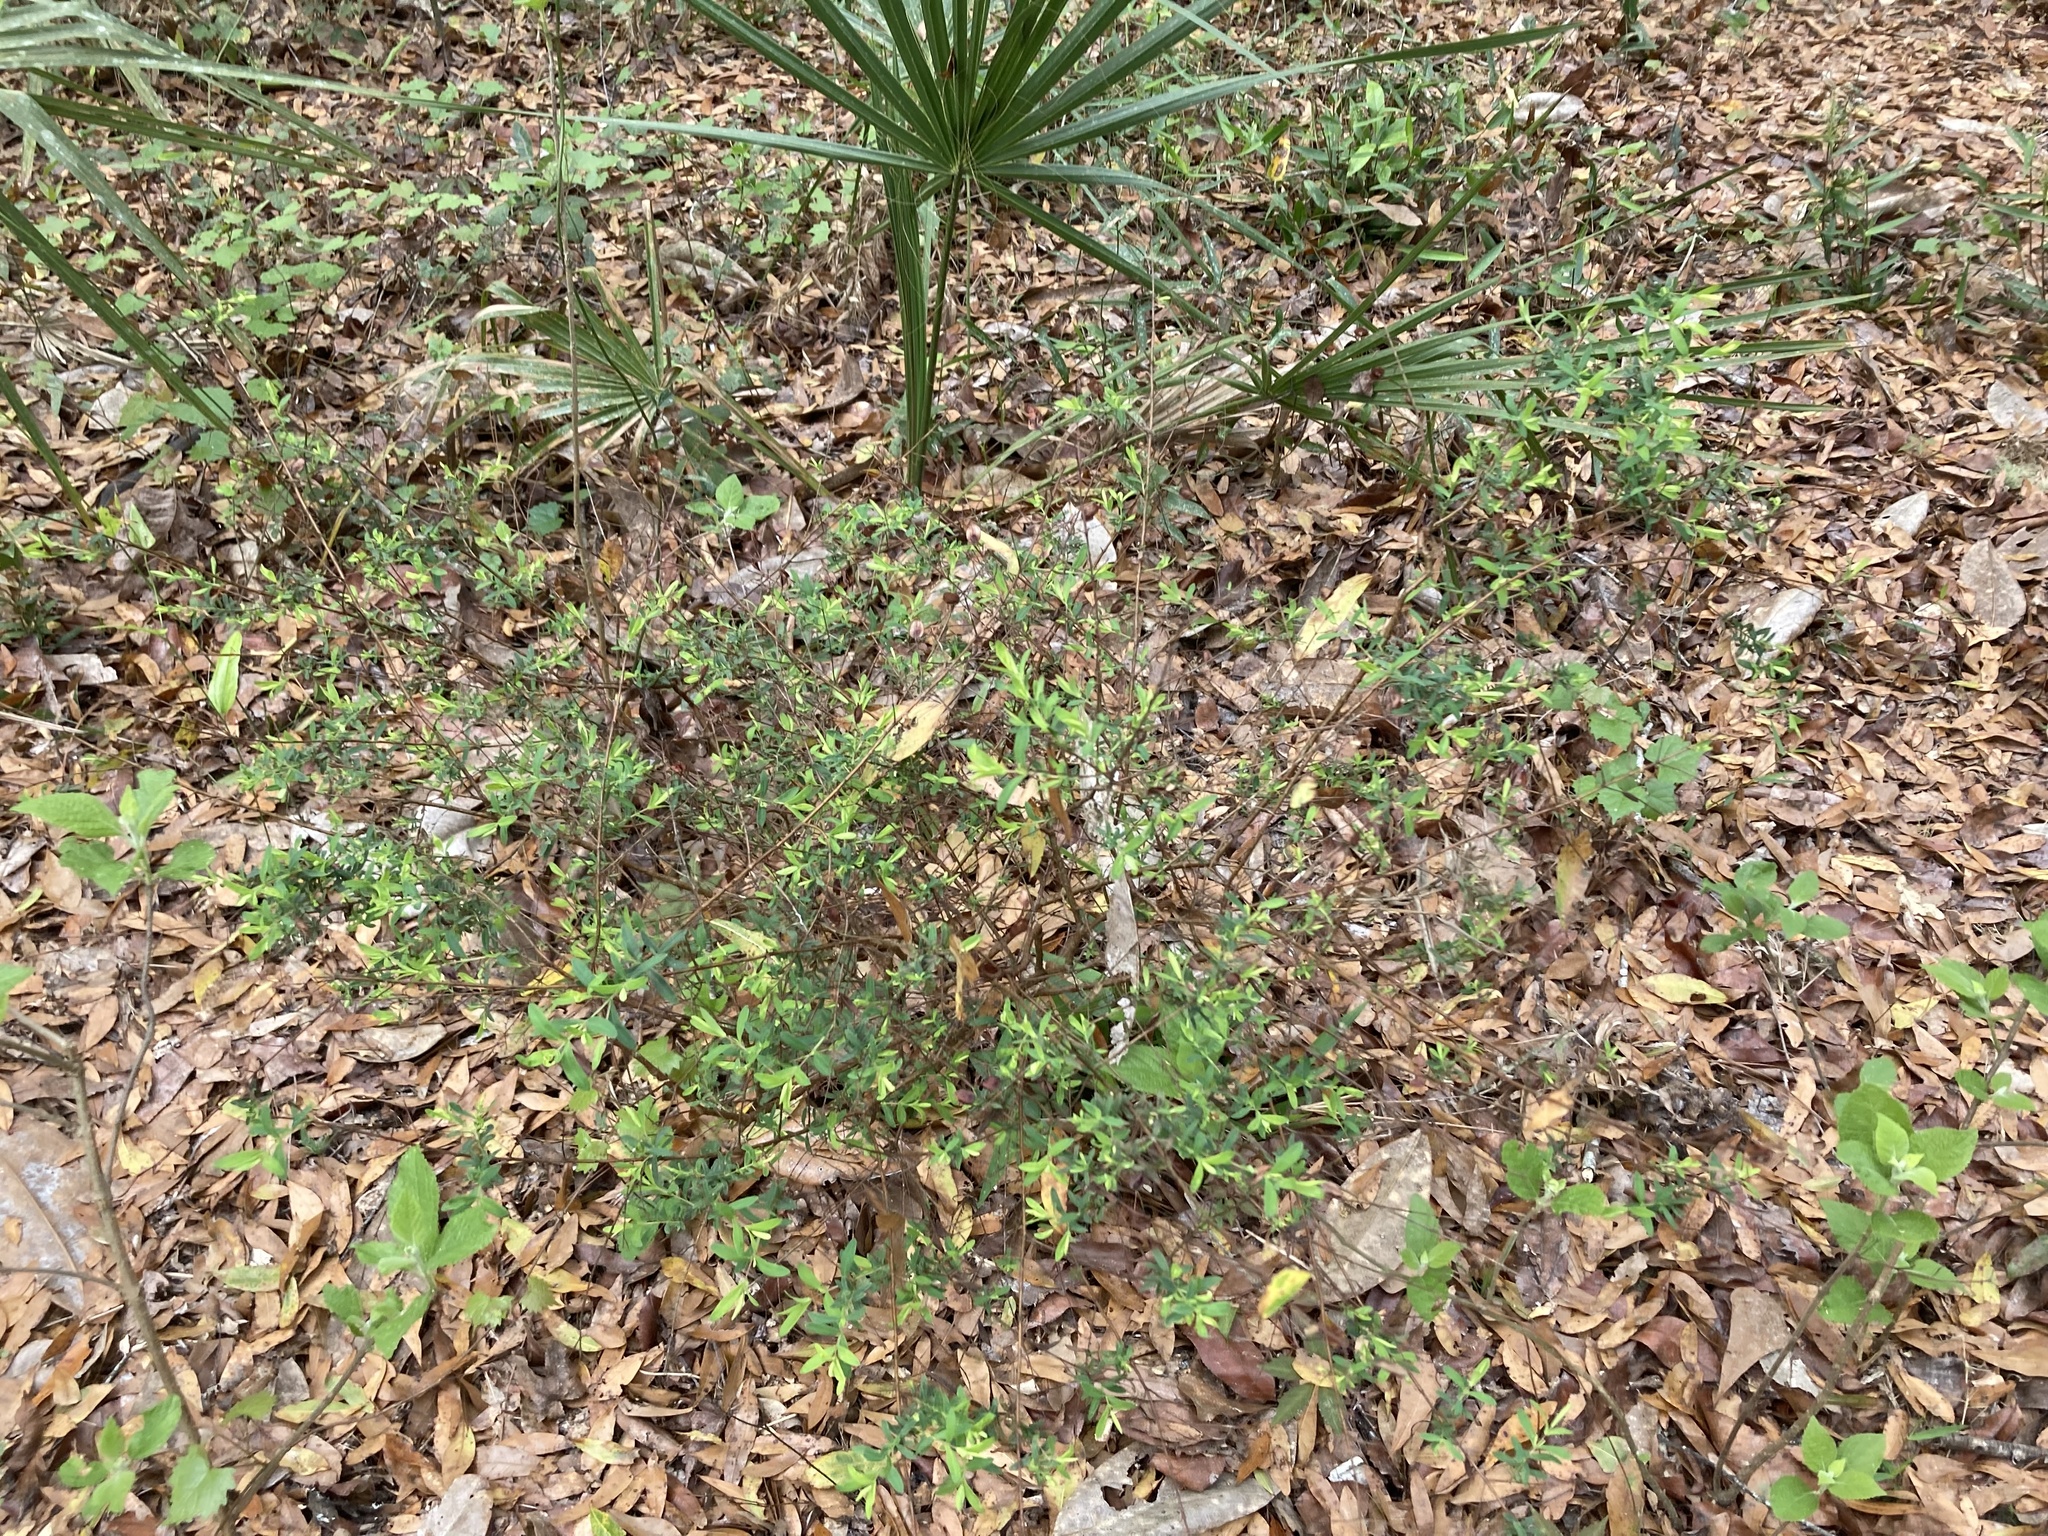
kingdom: Plantae
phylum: Tracheophyta
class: Magnoliopsida
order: Malpighiales
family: Hypericaceae
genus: Hypericum
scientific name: Hypericum hypericoides
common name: St. andrew's cross
